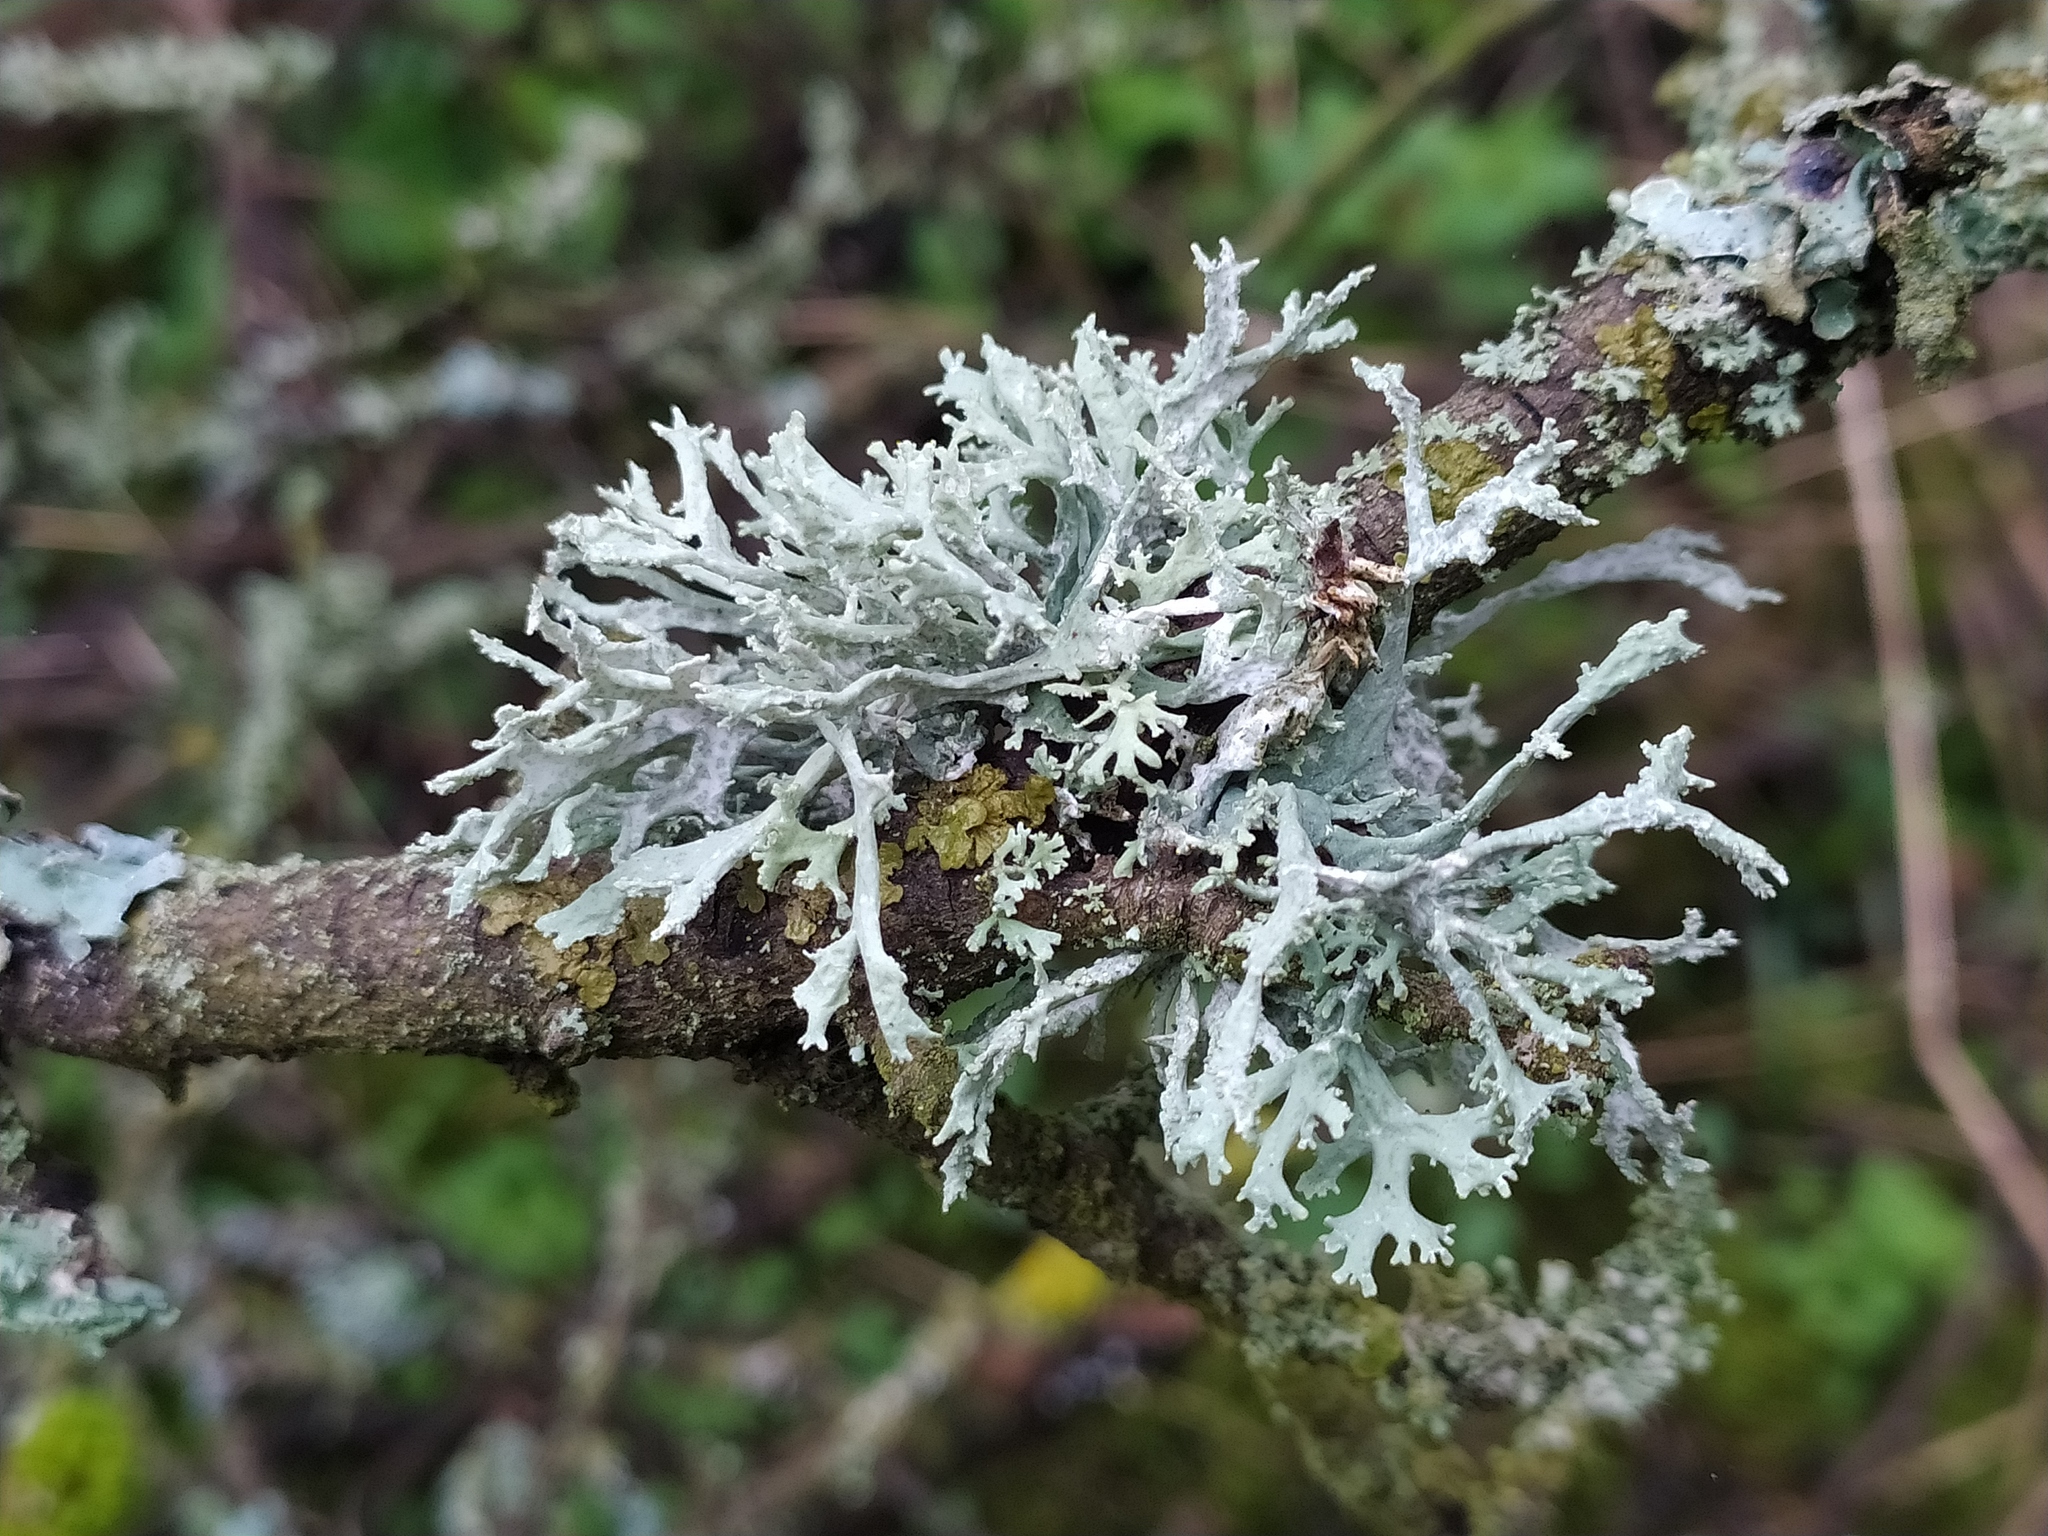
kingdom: Fungi
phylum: Ascomycota
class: Lecanoromycetes
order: Lecanorales
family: Parmeliaceae
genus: Evernia
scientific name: Evernia prunastri
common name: Oak moss
